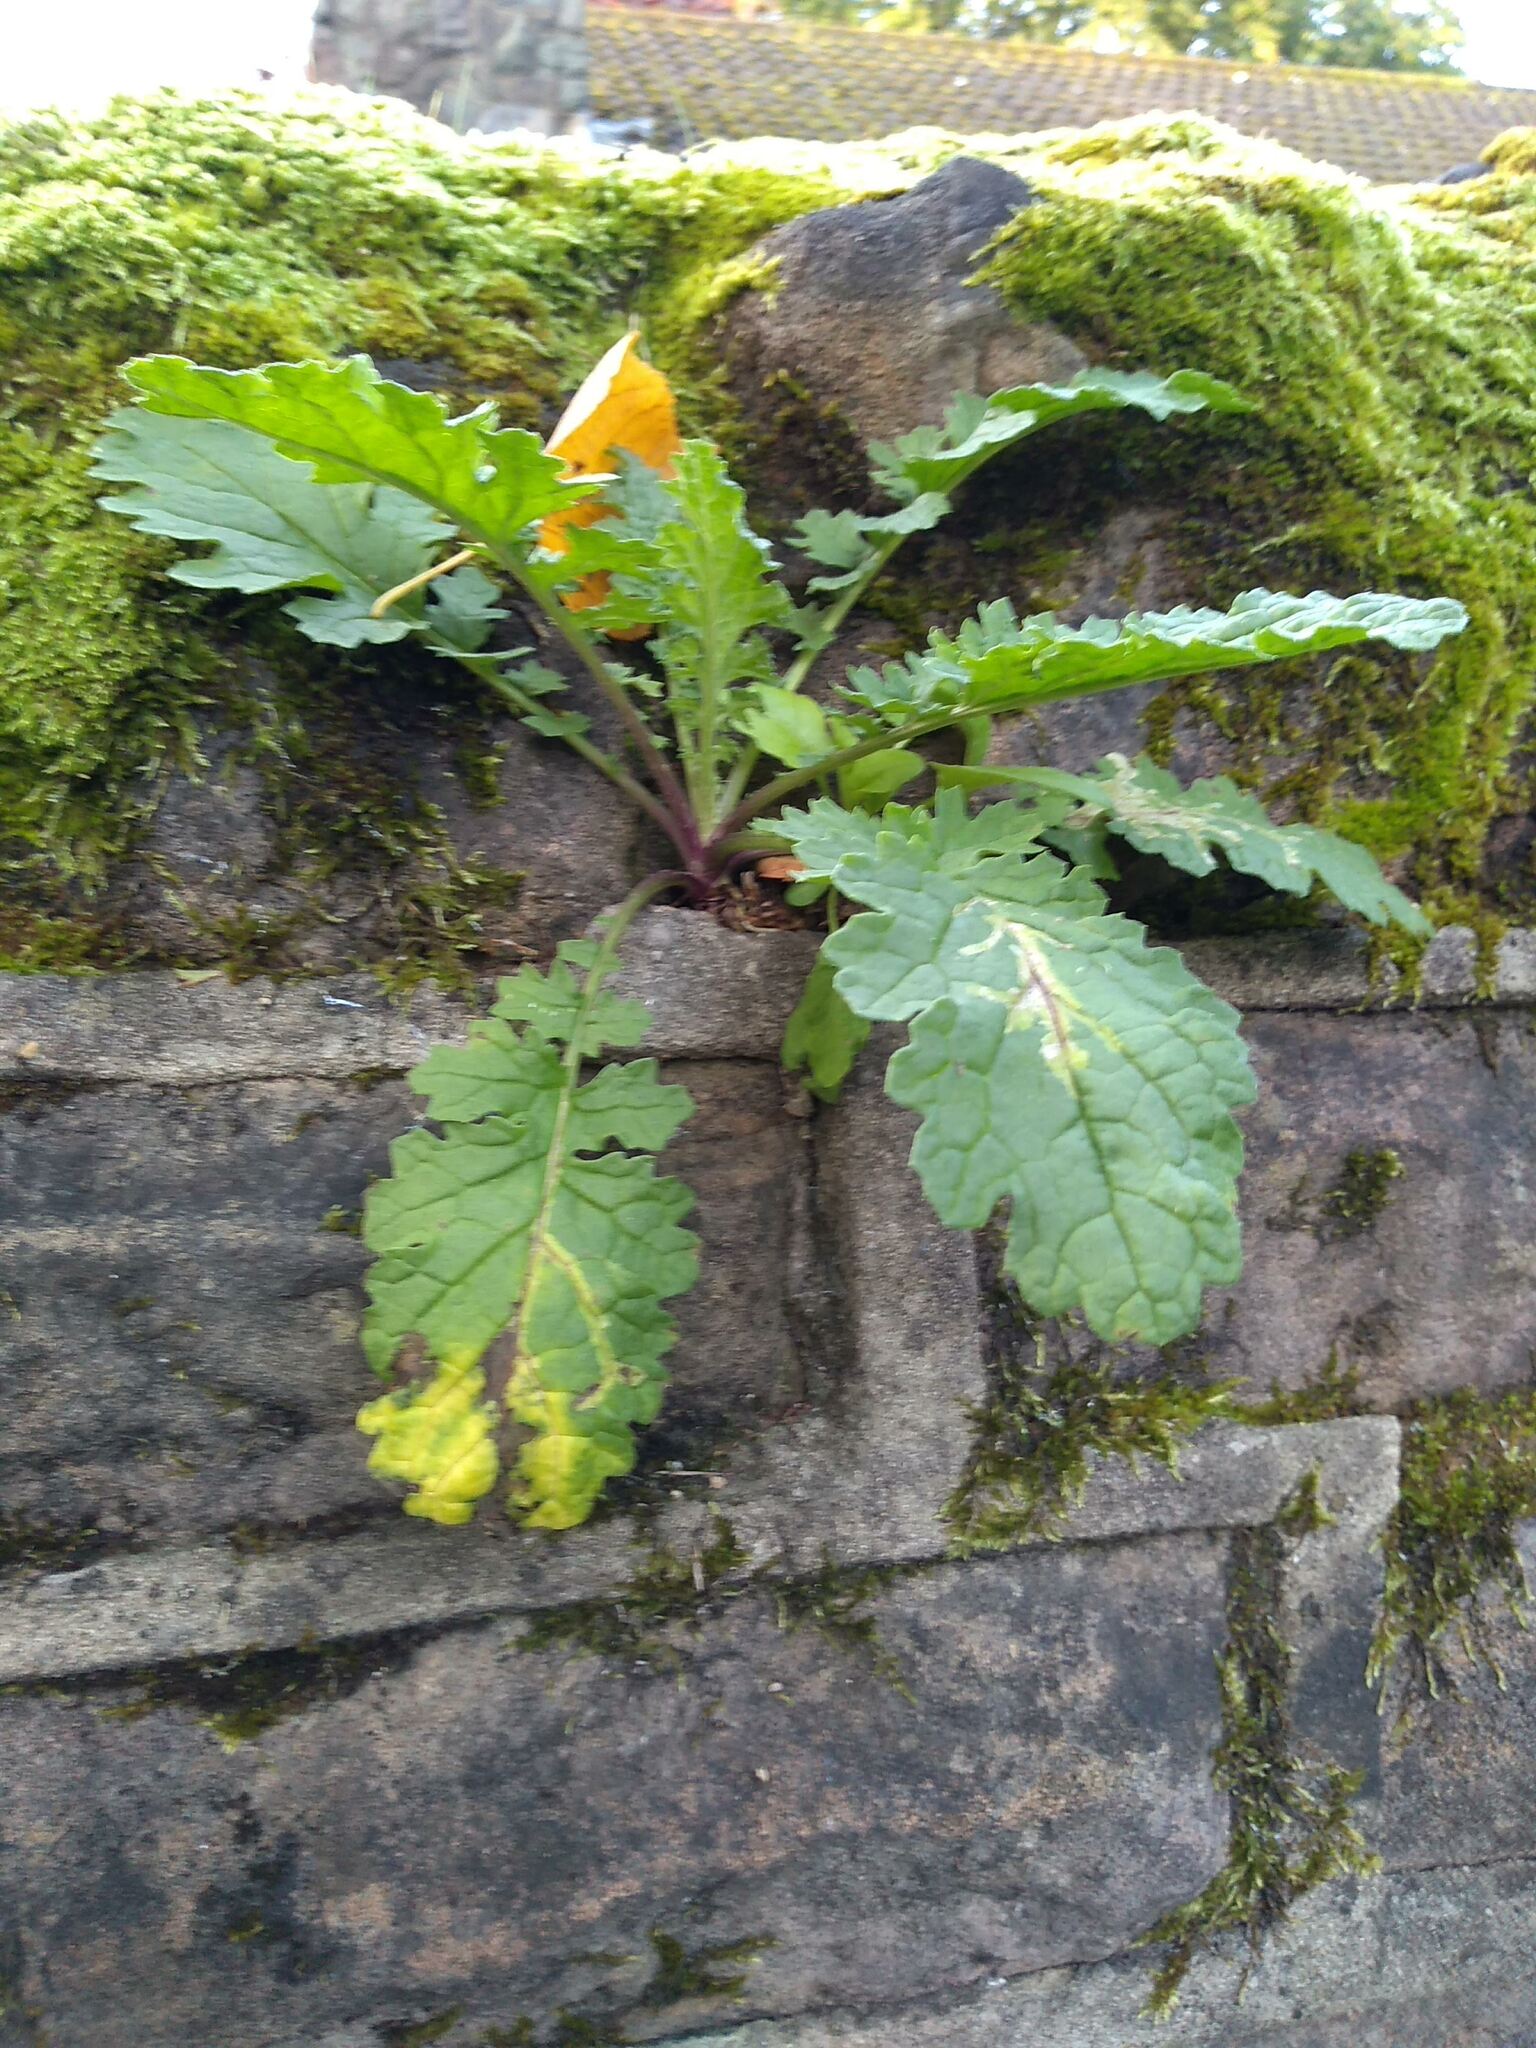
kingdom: Plantae
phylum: Tracheophyta
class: Magnoliopsida
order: Asterales
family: Asteraceae
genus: Jacobaea
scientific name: Jacobaea vulgaris
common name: Stinking willie
